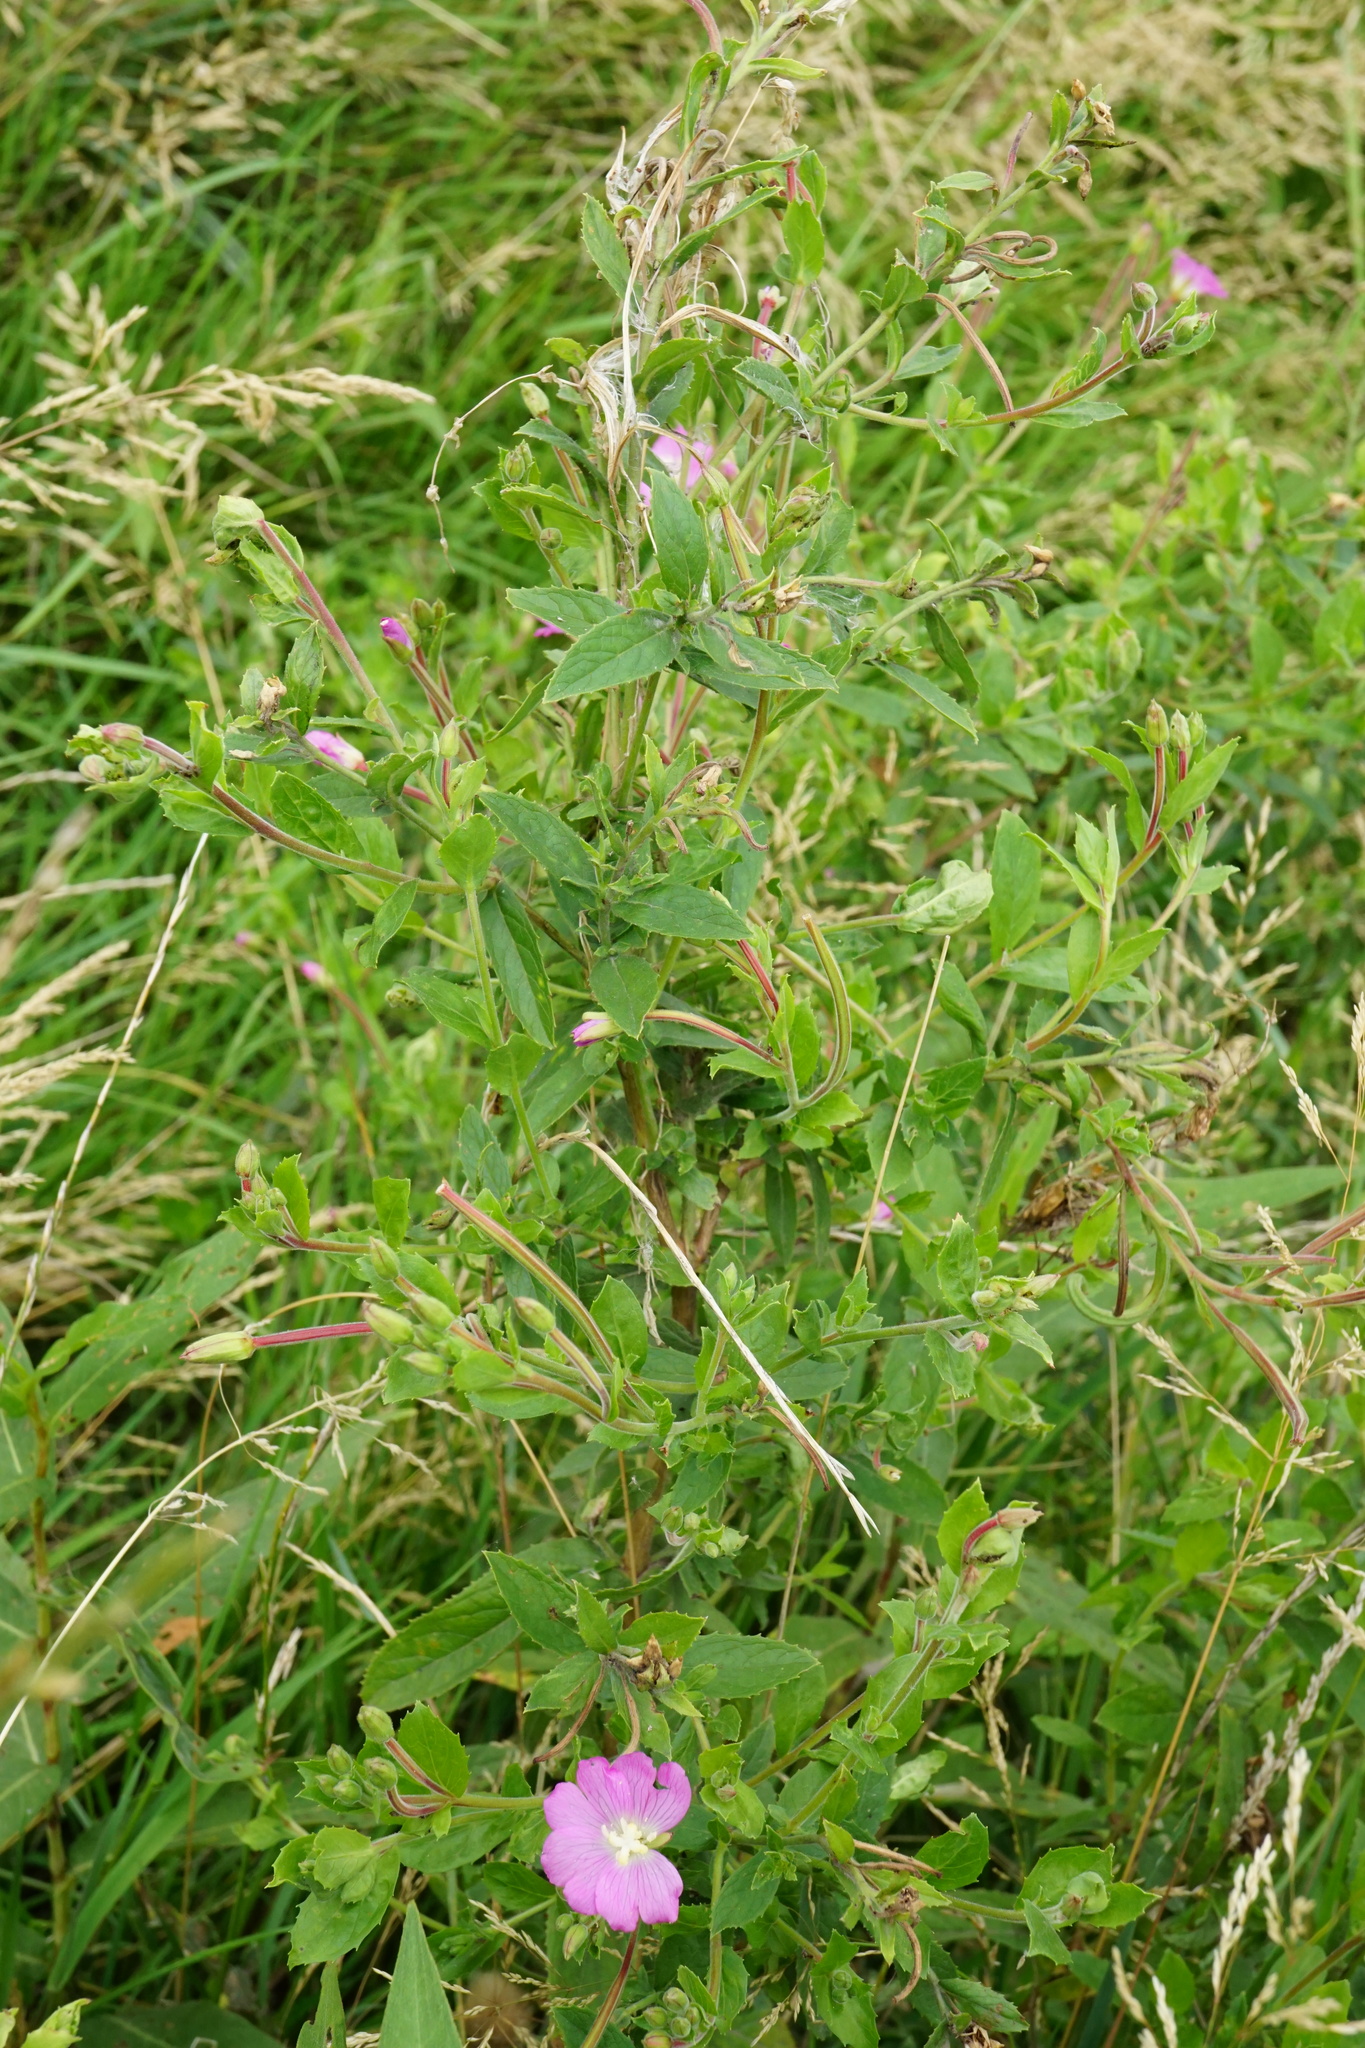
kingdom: Plantae
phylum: Tracheophyta
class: Magnoliopsida
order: Myrtales
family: Onagraceae
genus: Epilobium
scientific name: Epilobium hirsutum
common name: Great willowherb
